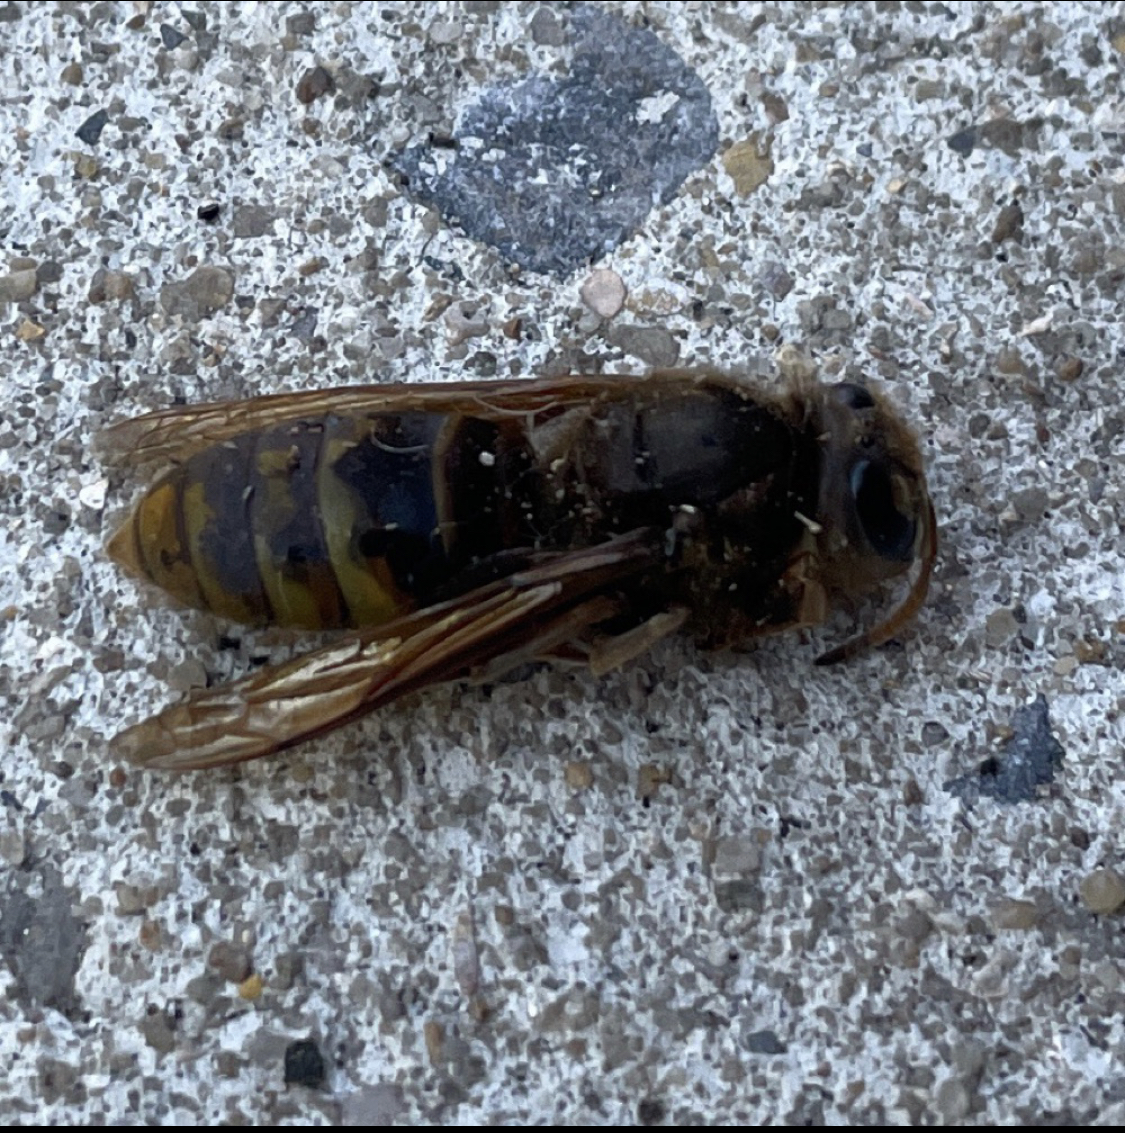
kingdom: Animalia
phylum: Arthropoda
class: Insecta
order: Hymenoptera
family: Vespidae
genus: Vespa
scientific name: Vespa crabro
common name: Hornet
